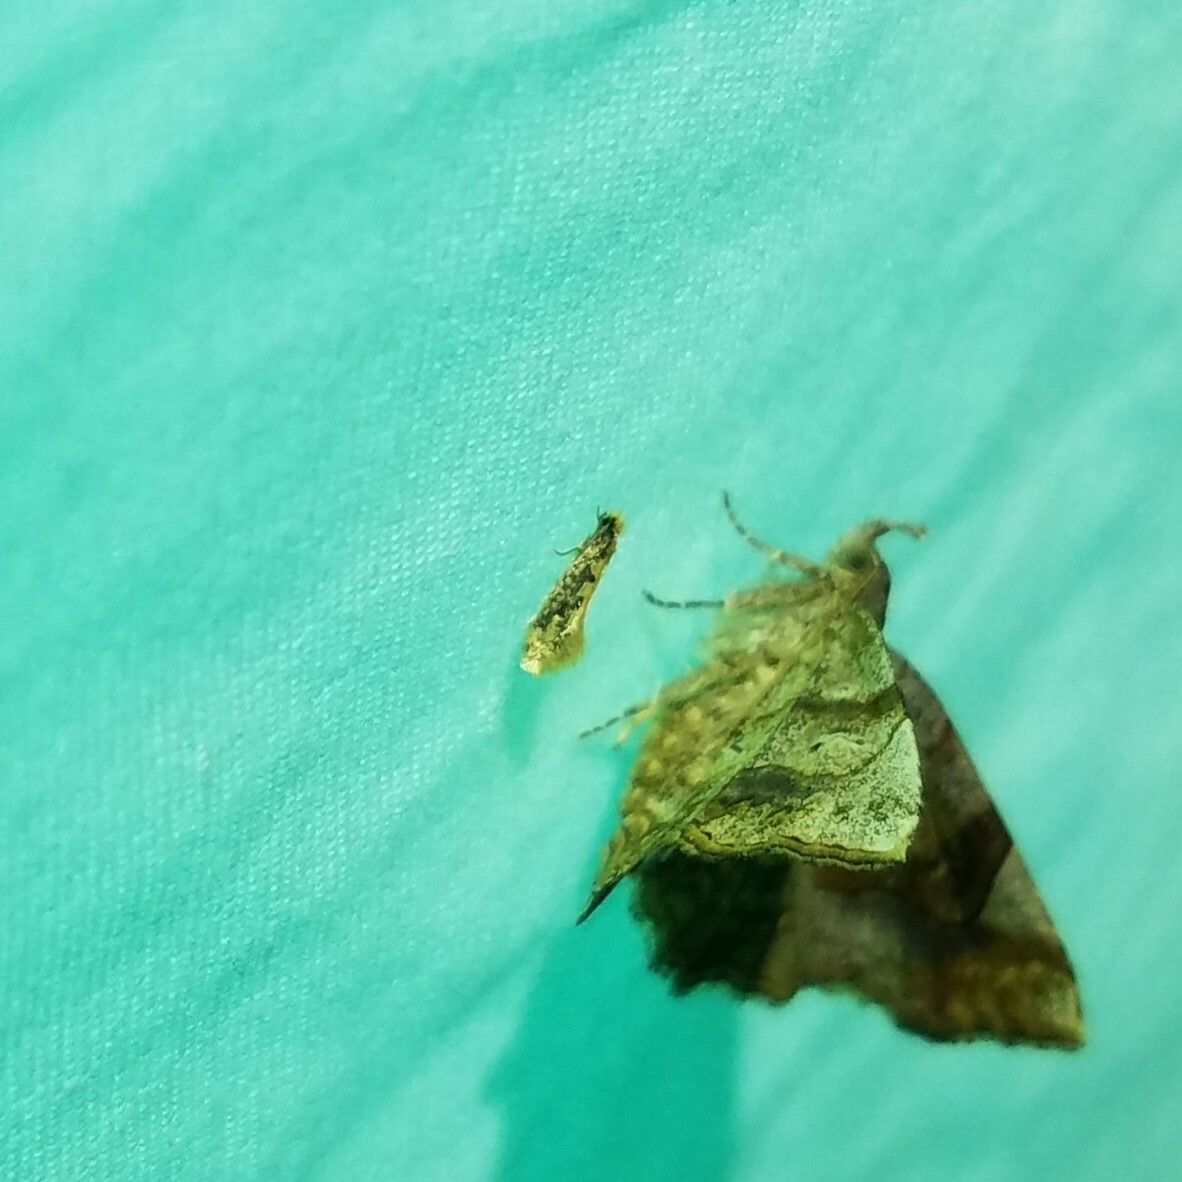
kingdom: Animalia
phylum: Arthropoda
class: Insecta
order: Lepidoptera
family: Erebidae
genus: Pangrapta
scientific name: Pangrapta decoralis
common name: Decorated owlet
